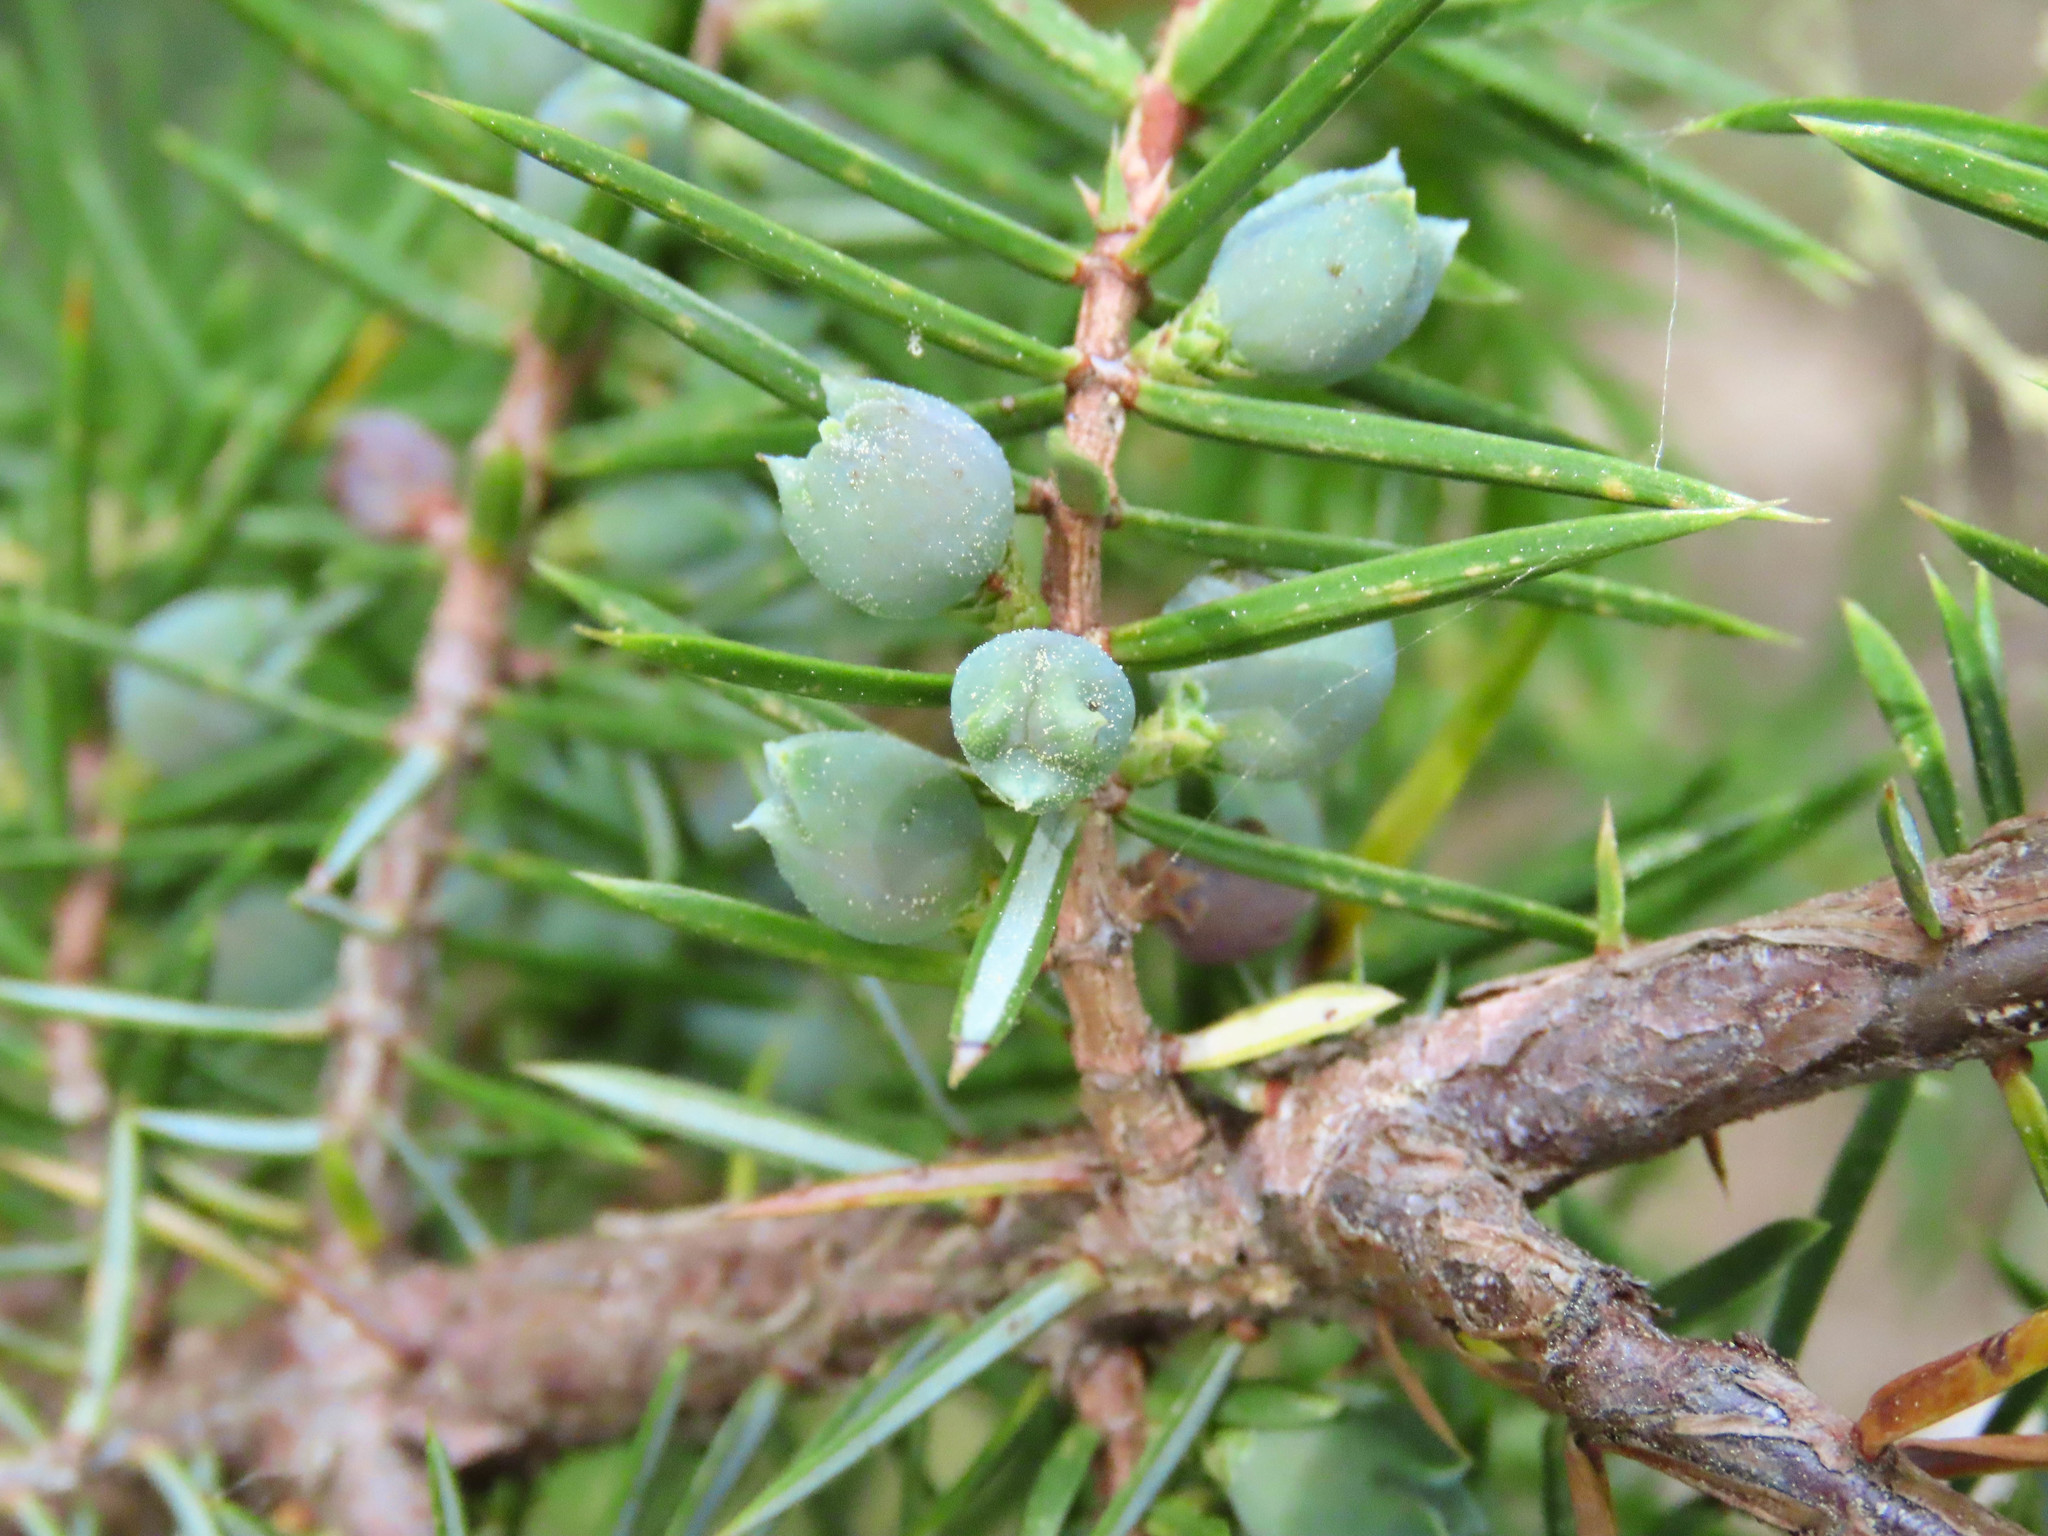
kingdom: Plantae
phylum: Tracheophyta
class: Pinopsida
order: Pinales
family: Cupressaceae
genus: Juniperus
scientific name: Juniperus communis
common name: Common juniper
